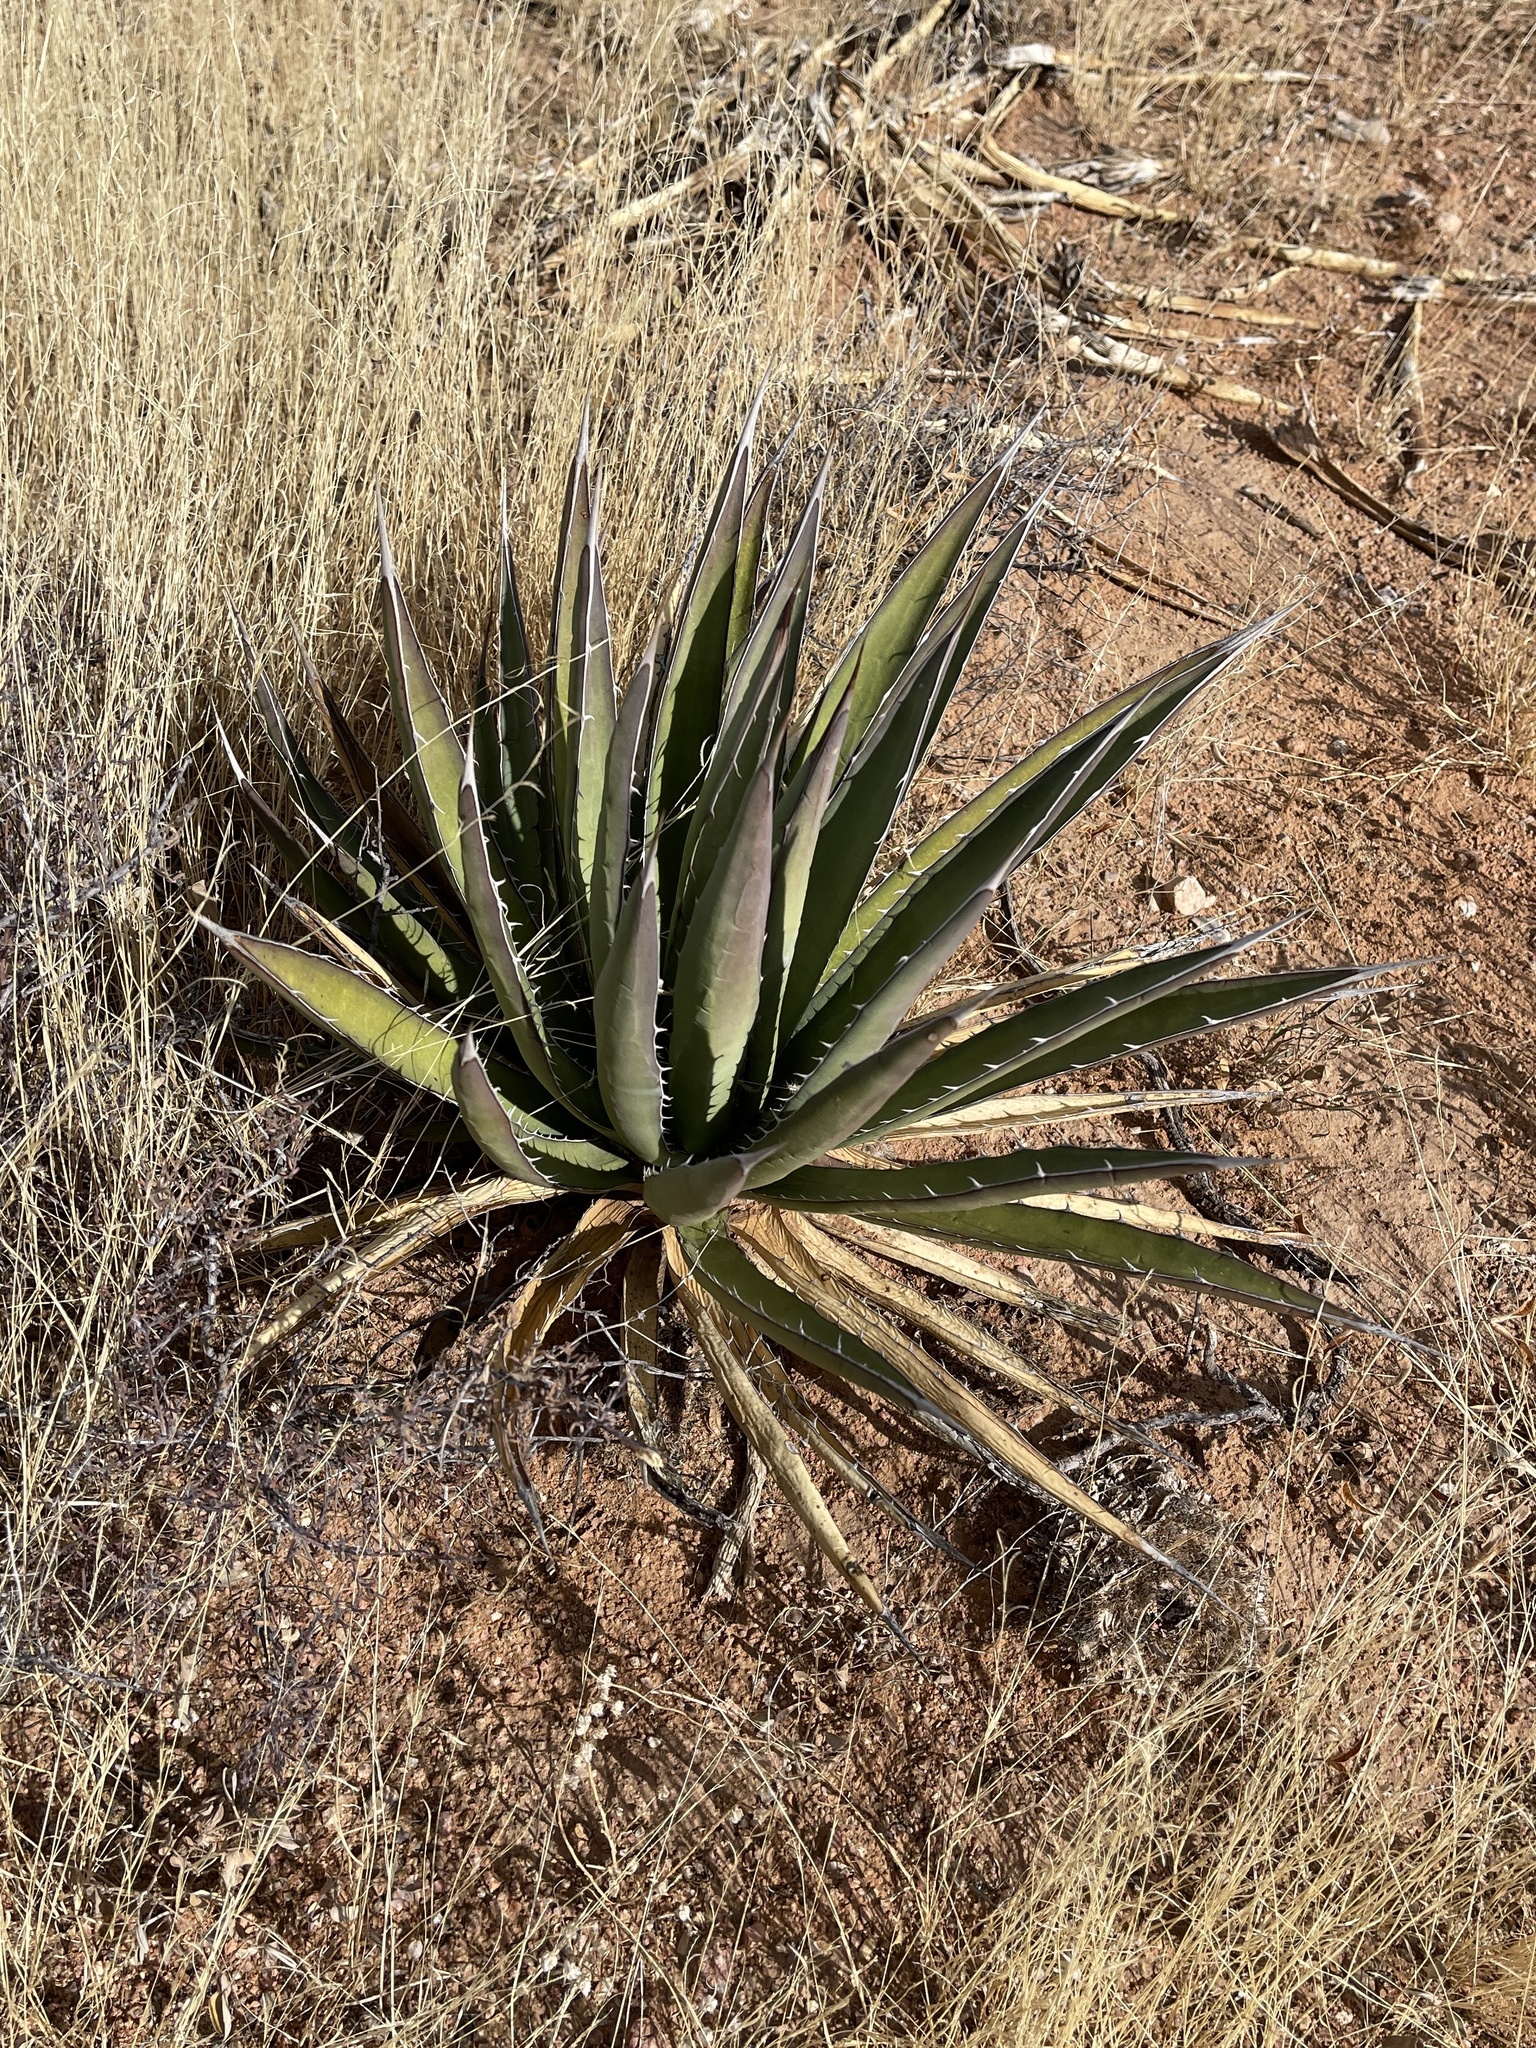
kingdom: Plantae
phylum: Tracheophyta
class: Liliopsida
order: Asparagales
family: Asparagaceae
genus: Agave
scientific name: Agave lechuguilla
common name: Lecheguilla agave
